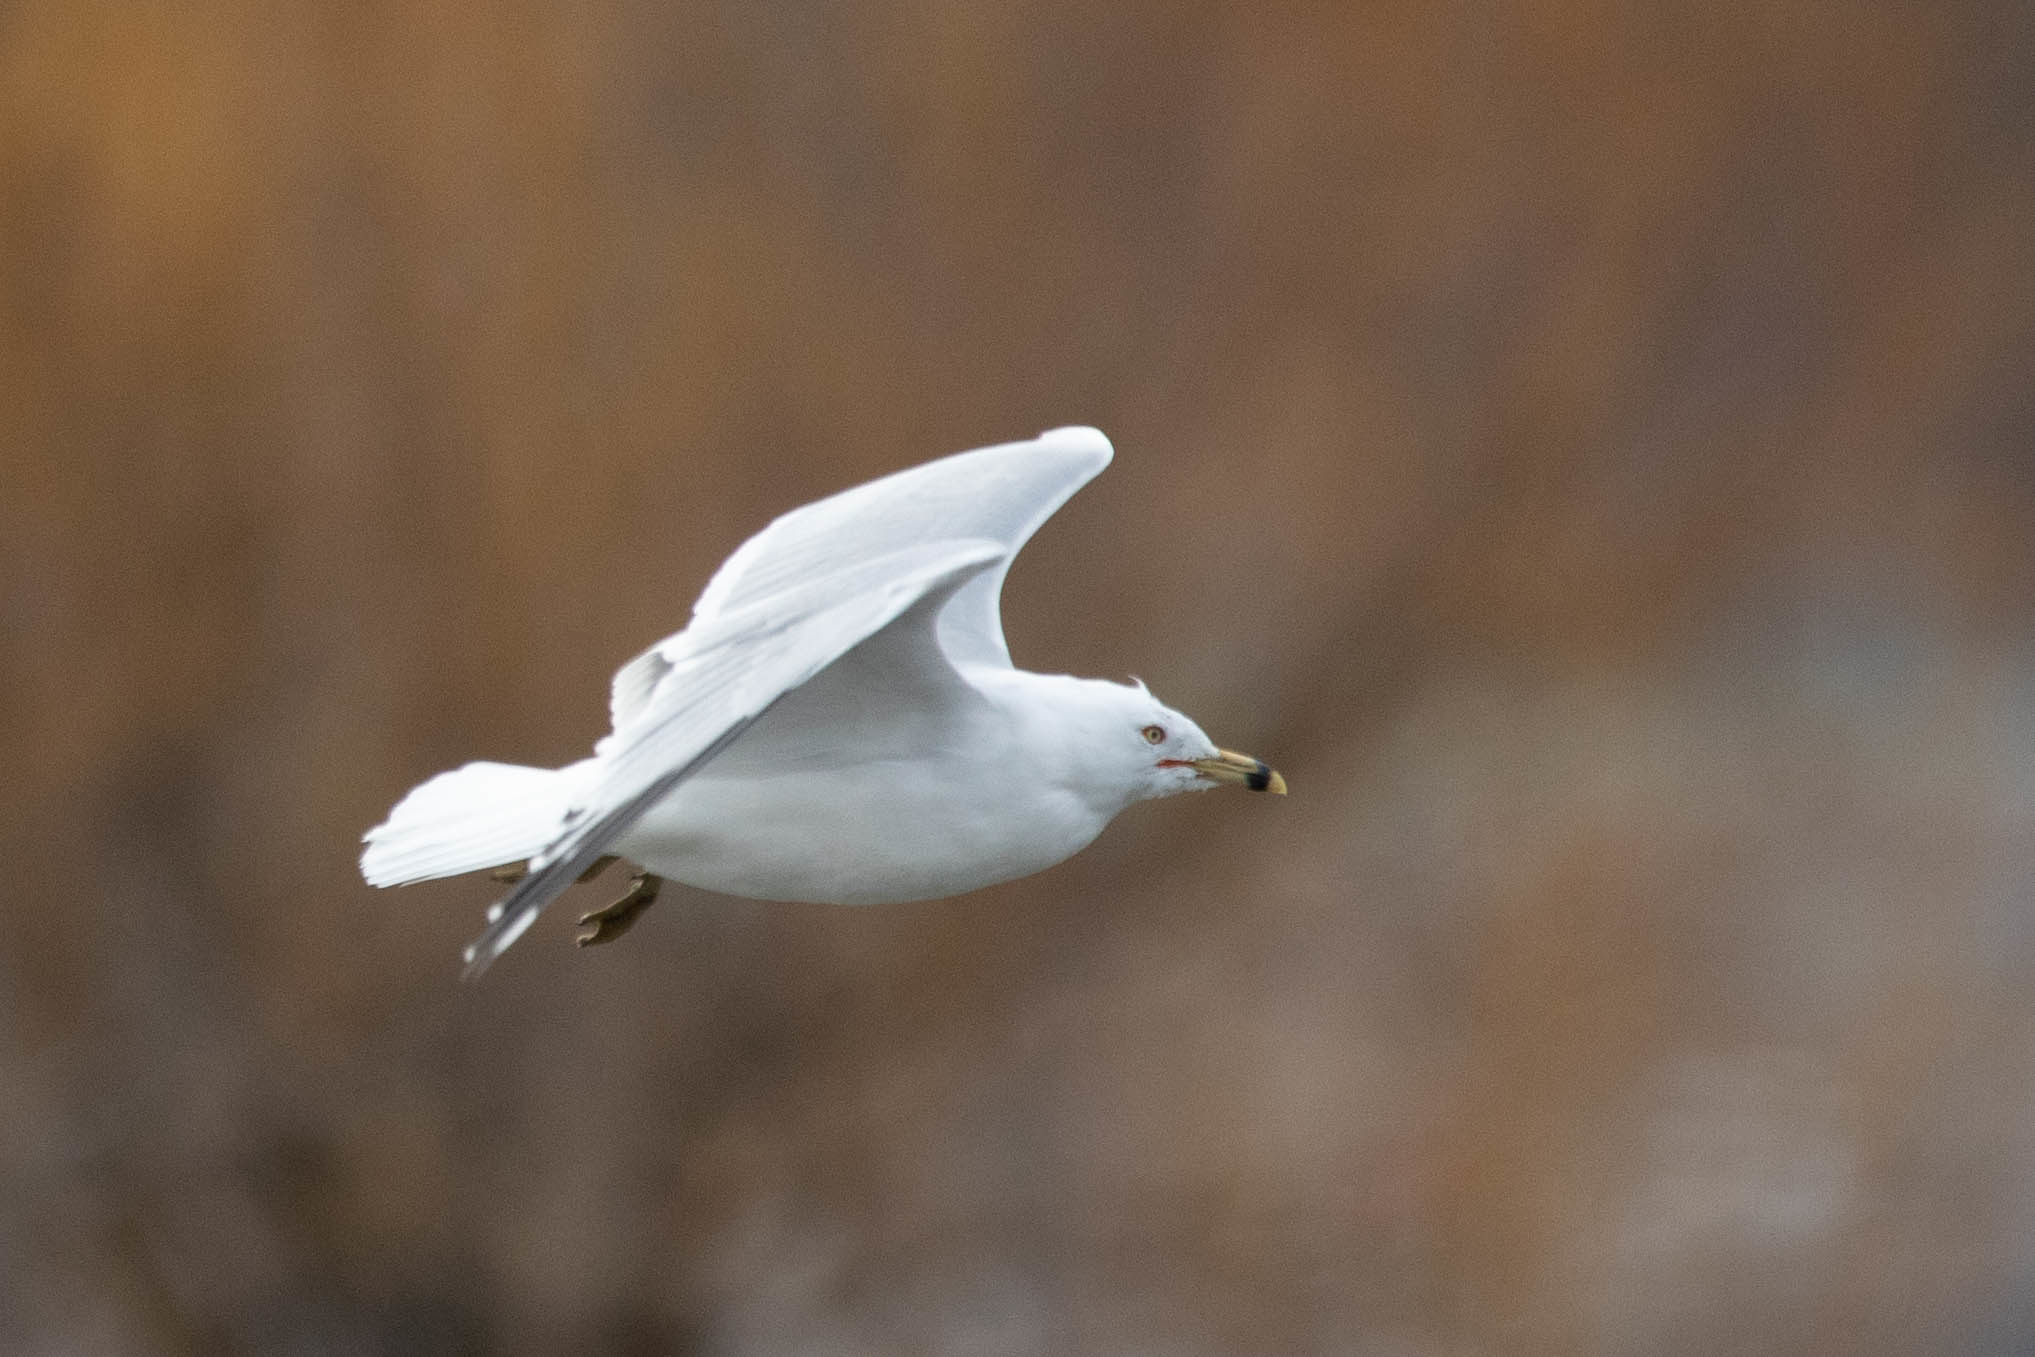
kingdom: Animalia
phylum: Chordata
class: Aves
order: Charadriiformes
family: Laridae
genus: Larus
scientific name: Larus delawarensis
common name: Ring-billed gull
